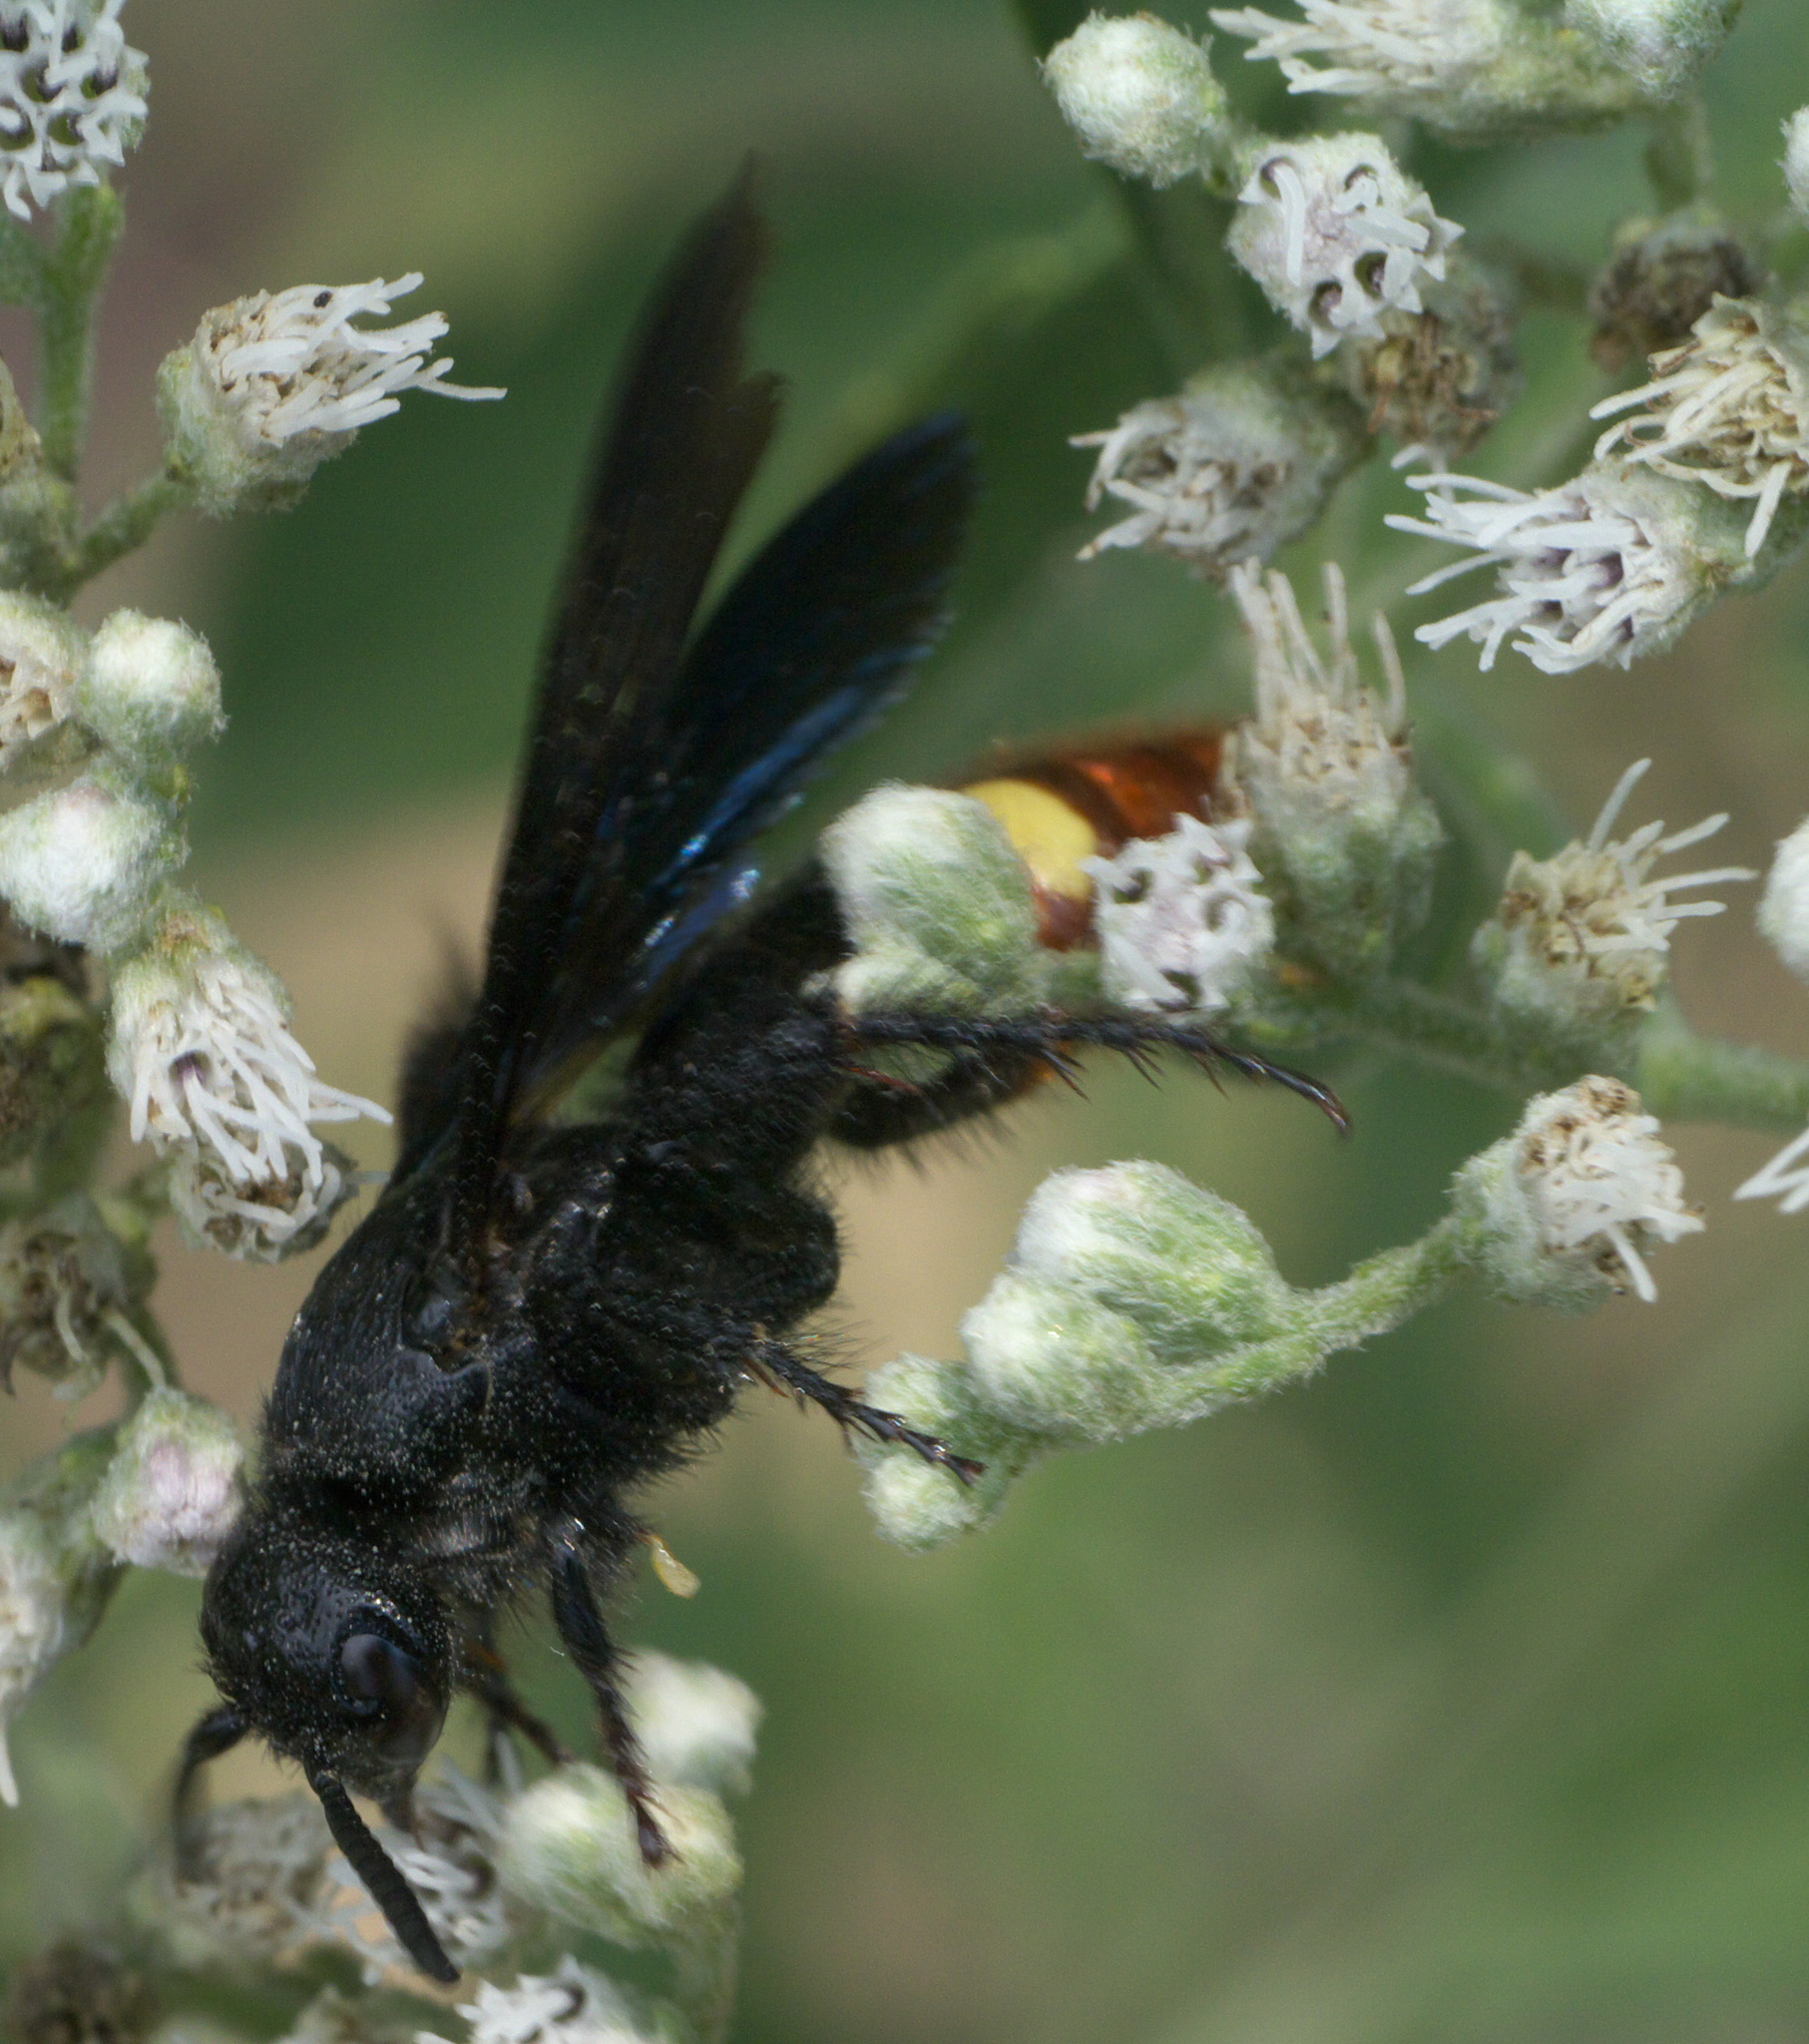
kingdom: Animalia
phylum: Arthropoda
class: Insecta
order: Hymenoptera
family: Scoliidae
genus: Scolia
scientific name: Scolia dubia
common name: Blue-winged scoliid wasp
